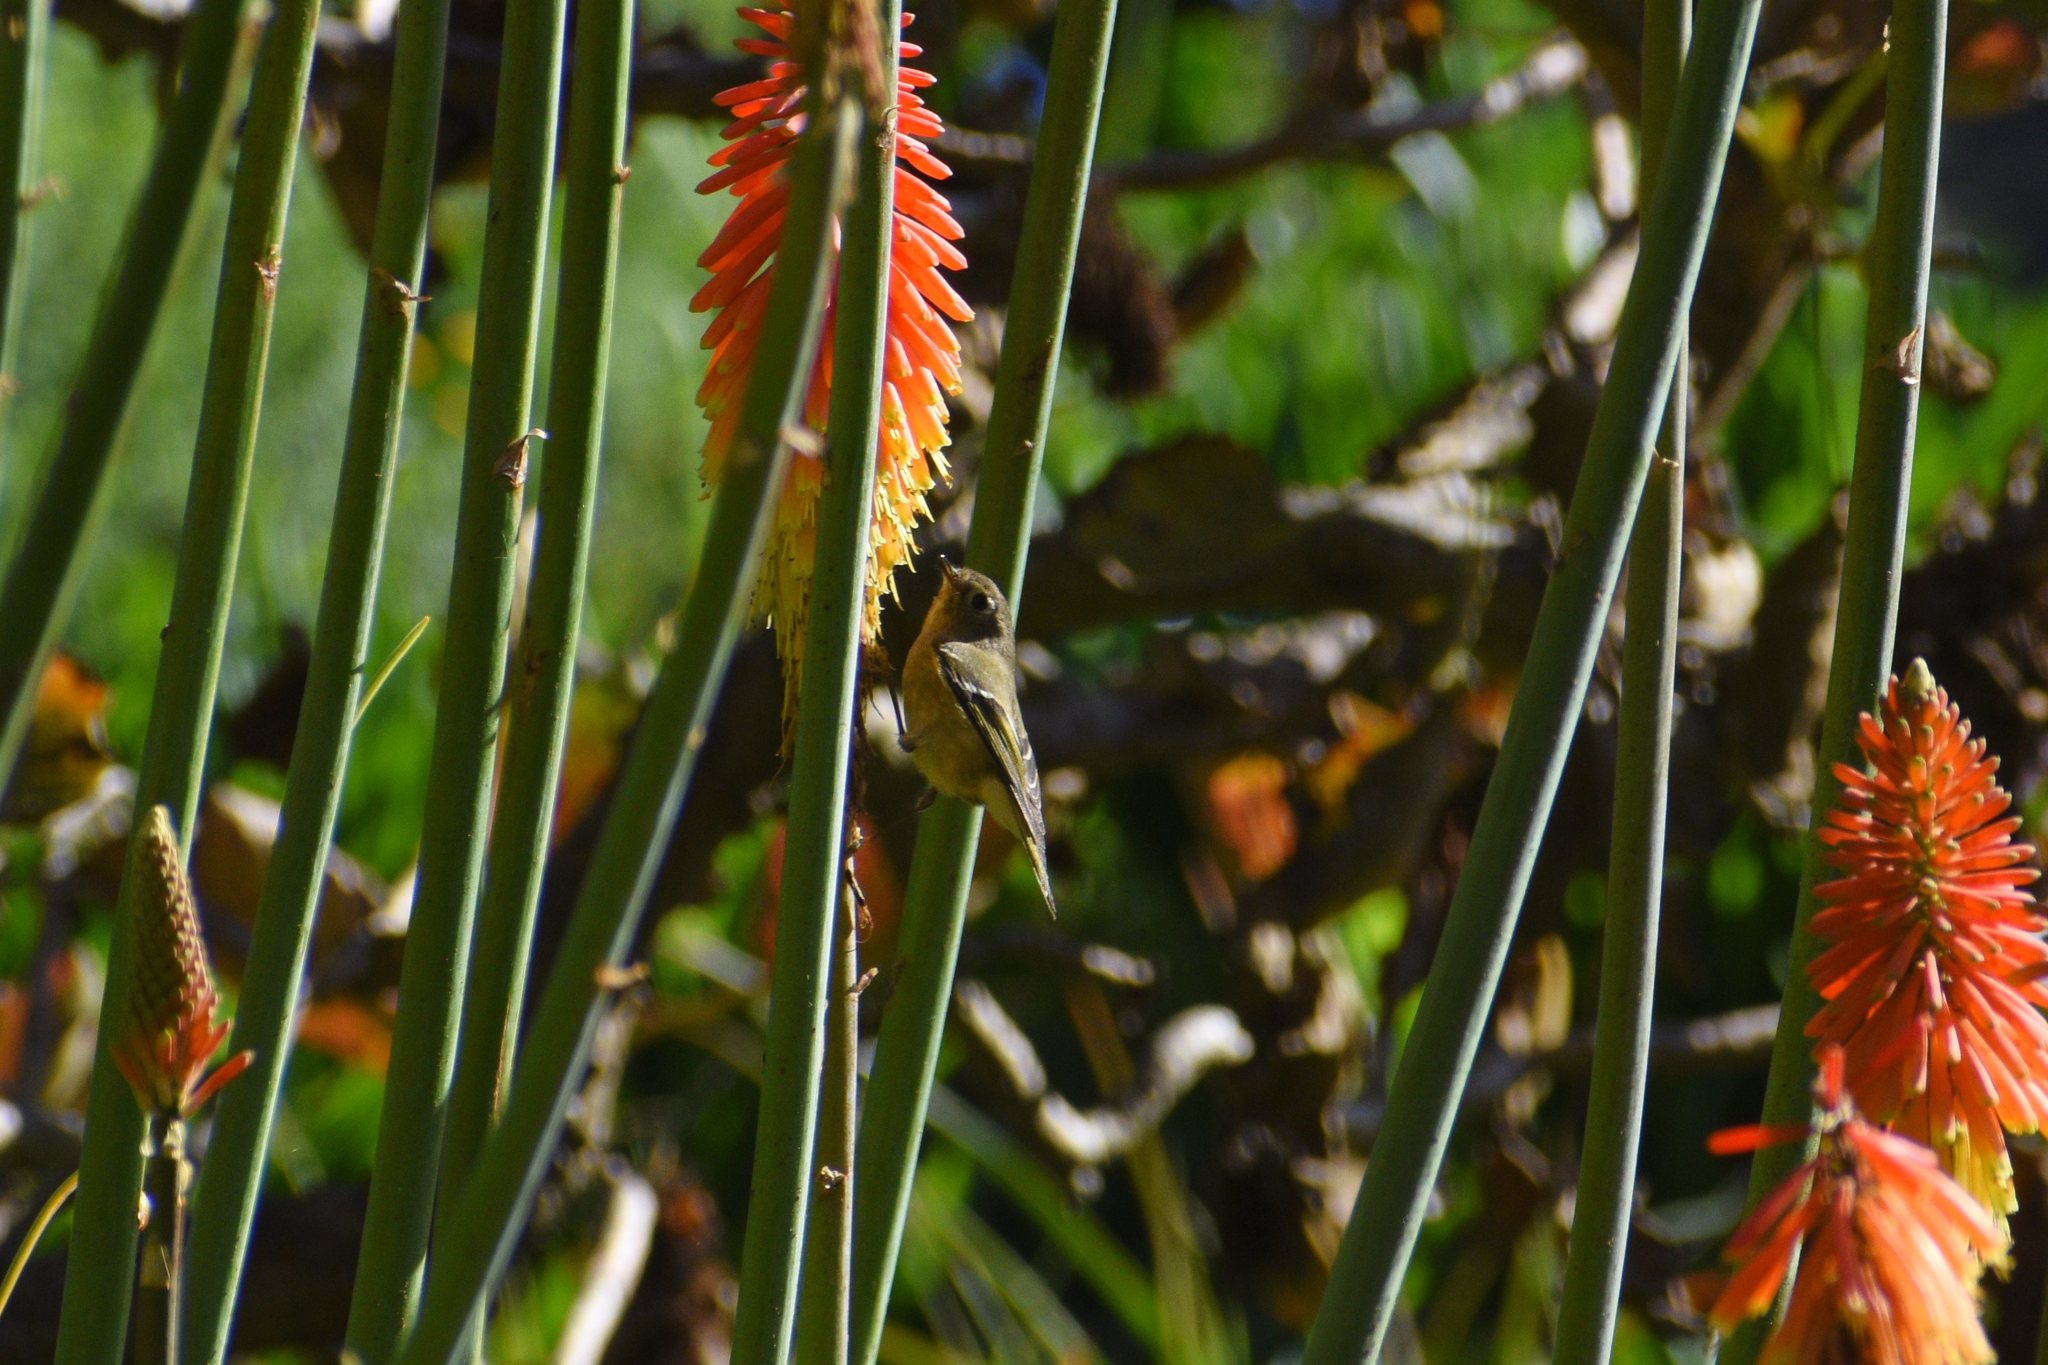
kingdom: Animalia
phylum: Chordata
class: Aves
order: Passeriformes
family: Regulidae
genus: Regulus
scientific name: Regulus calendula
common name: Ruby-crowned kinglet
